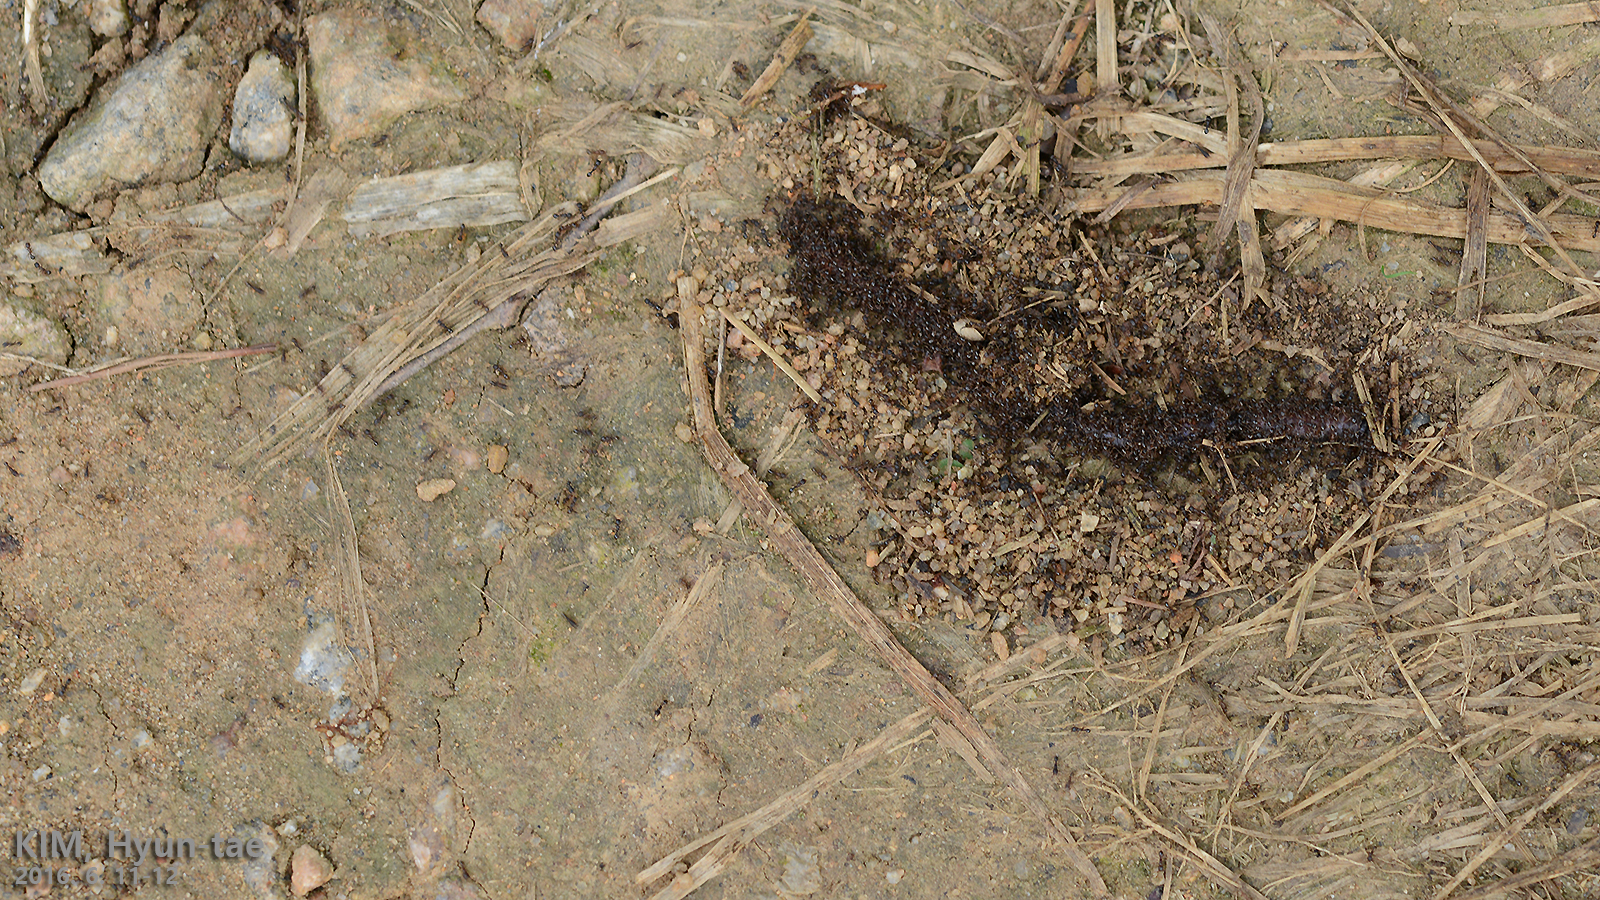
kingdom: Animalia
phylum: Arthropoda
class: Insecta
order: Hymenoptera
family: Formicidae
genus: Tetramorium
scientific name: Tetramorium tsushimae
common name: Ant
